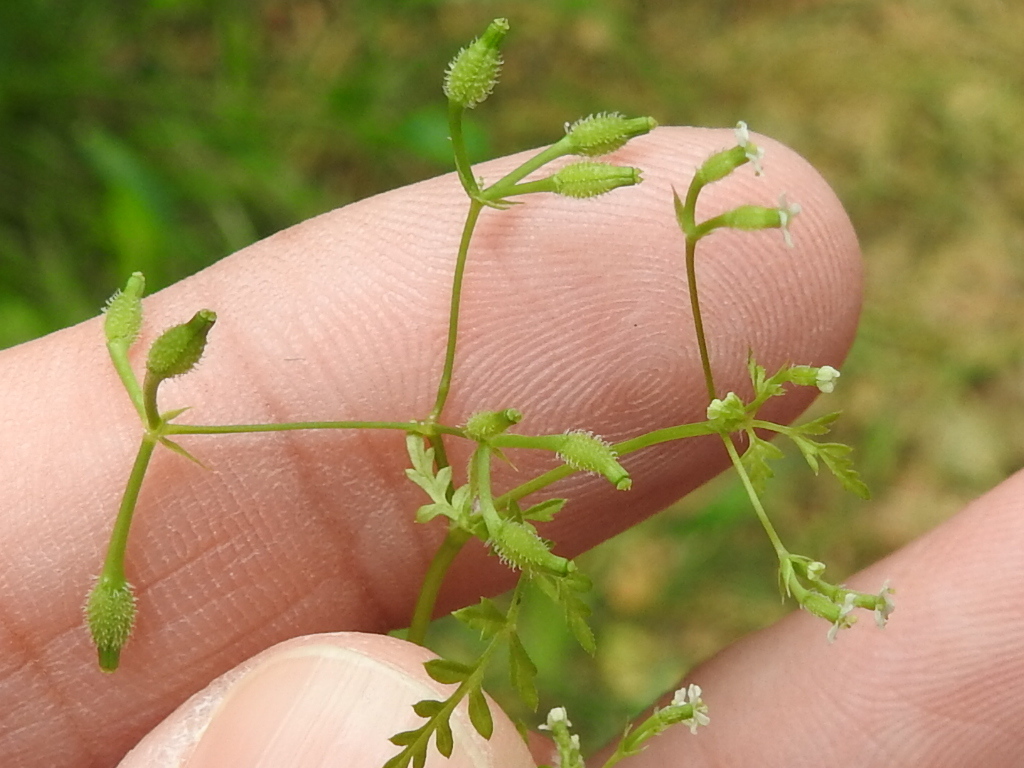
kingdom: Plantae
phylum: Tracheophyta
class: Magnoliopsida
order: Apiales
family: Apiaceae
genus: Anthriscus
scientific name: Anthriscus caucalis
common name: Bur chervil
